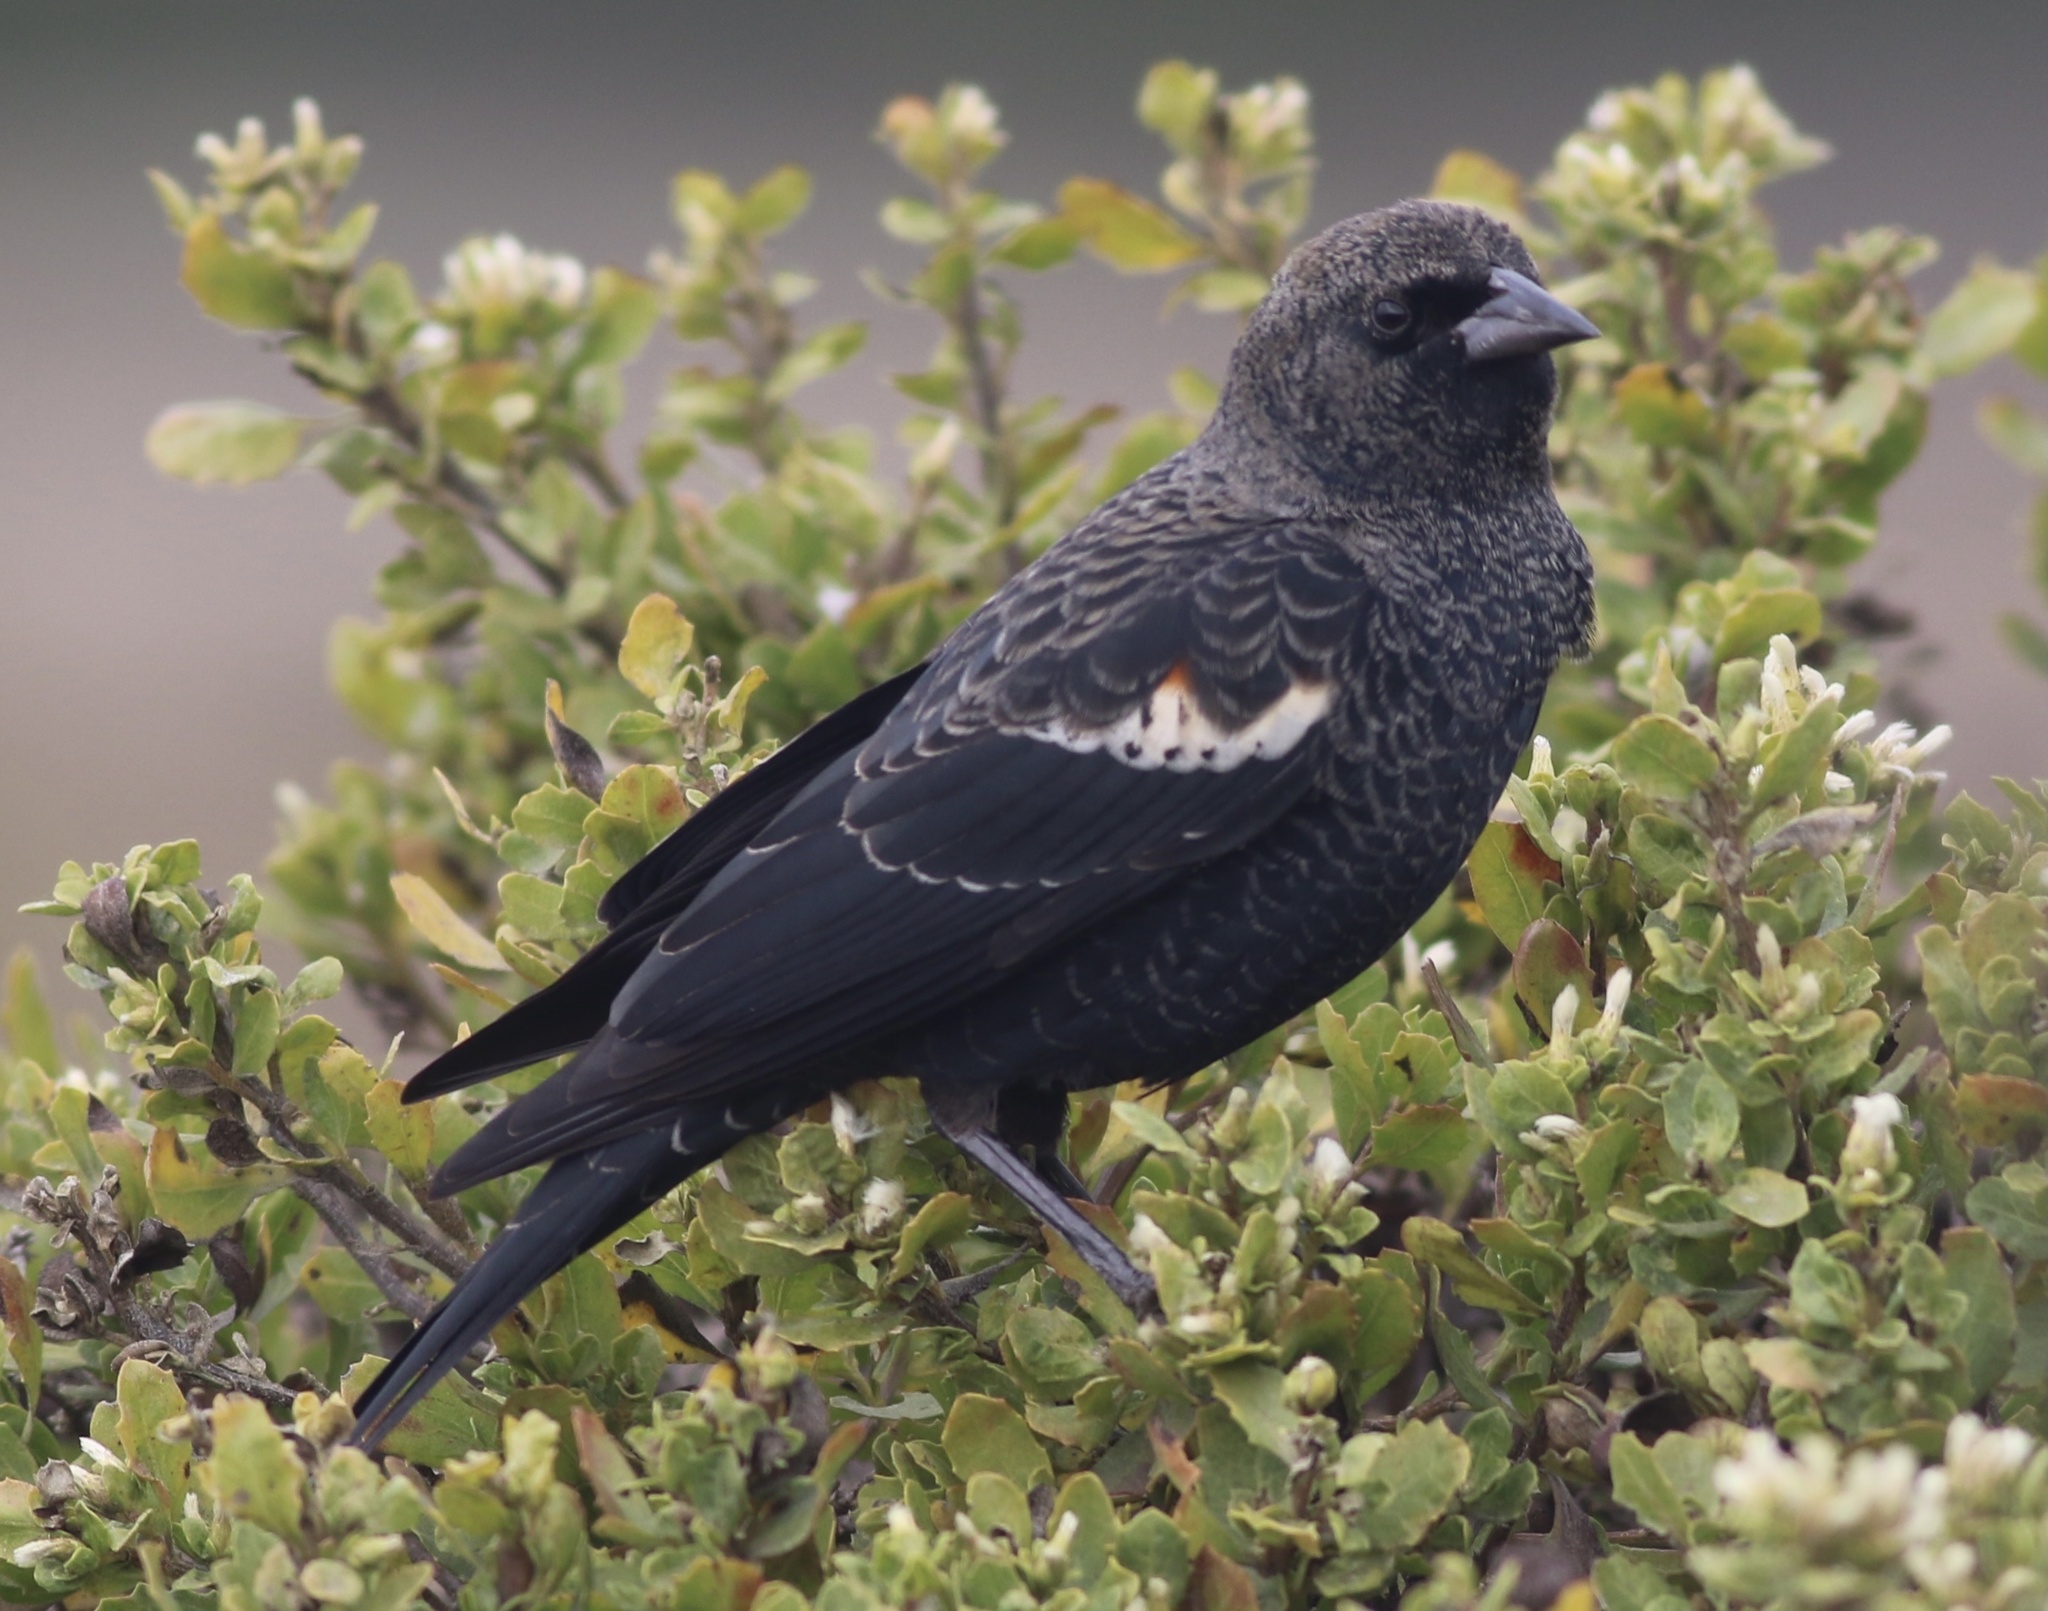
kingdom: Animalia
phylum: Chordata
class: Aves
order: Passeriformes
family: Icteridae
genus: Agelaius
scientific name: Agelaius tricolor
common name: Tricolored blackbird
